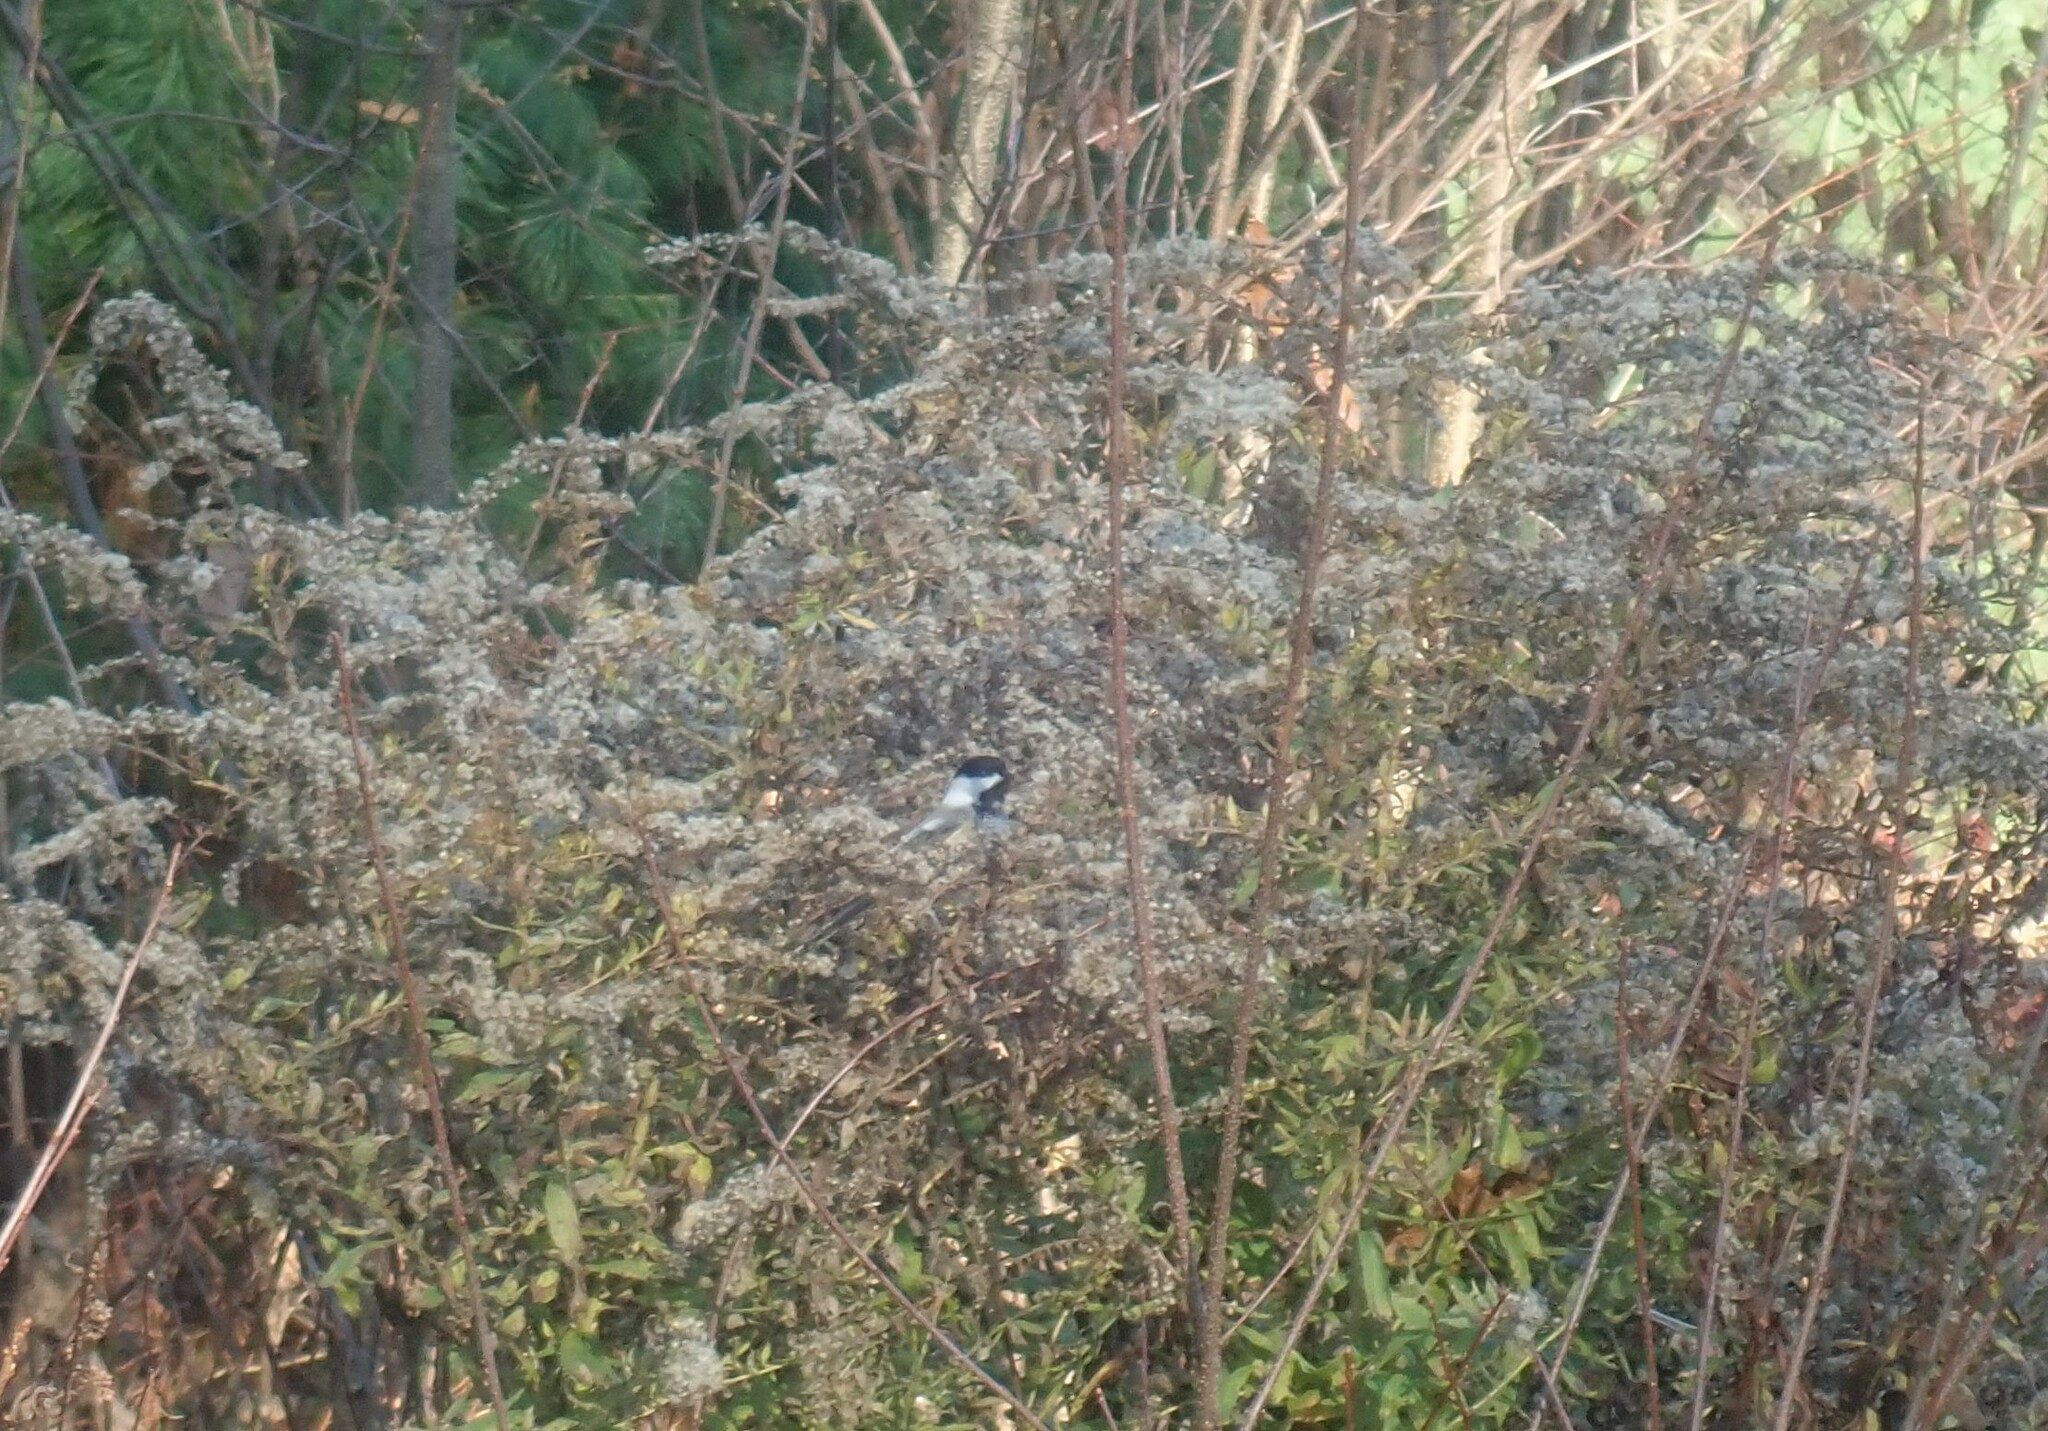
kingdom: Animalia
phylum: Chordata
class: Aves
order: Passeriformes
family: Paridae
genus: Poecile
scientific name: Poecile atricapillus
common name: Black-capped chickadee
